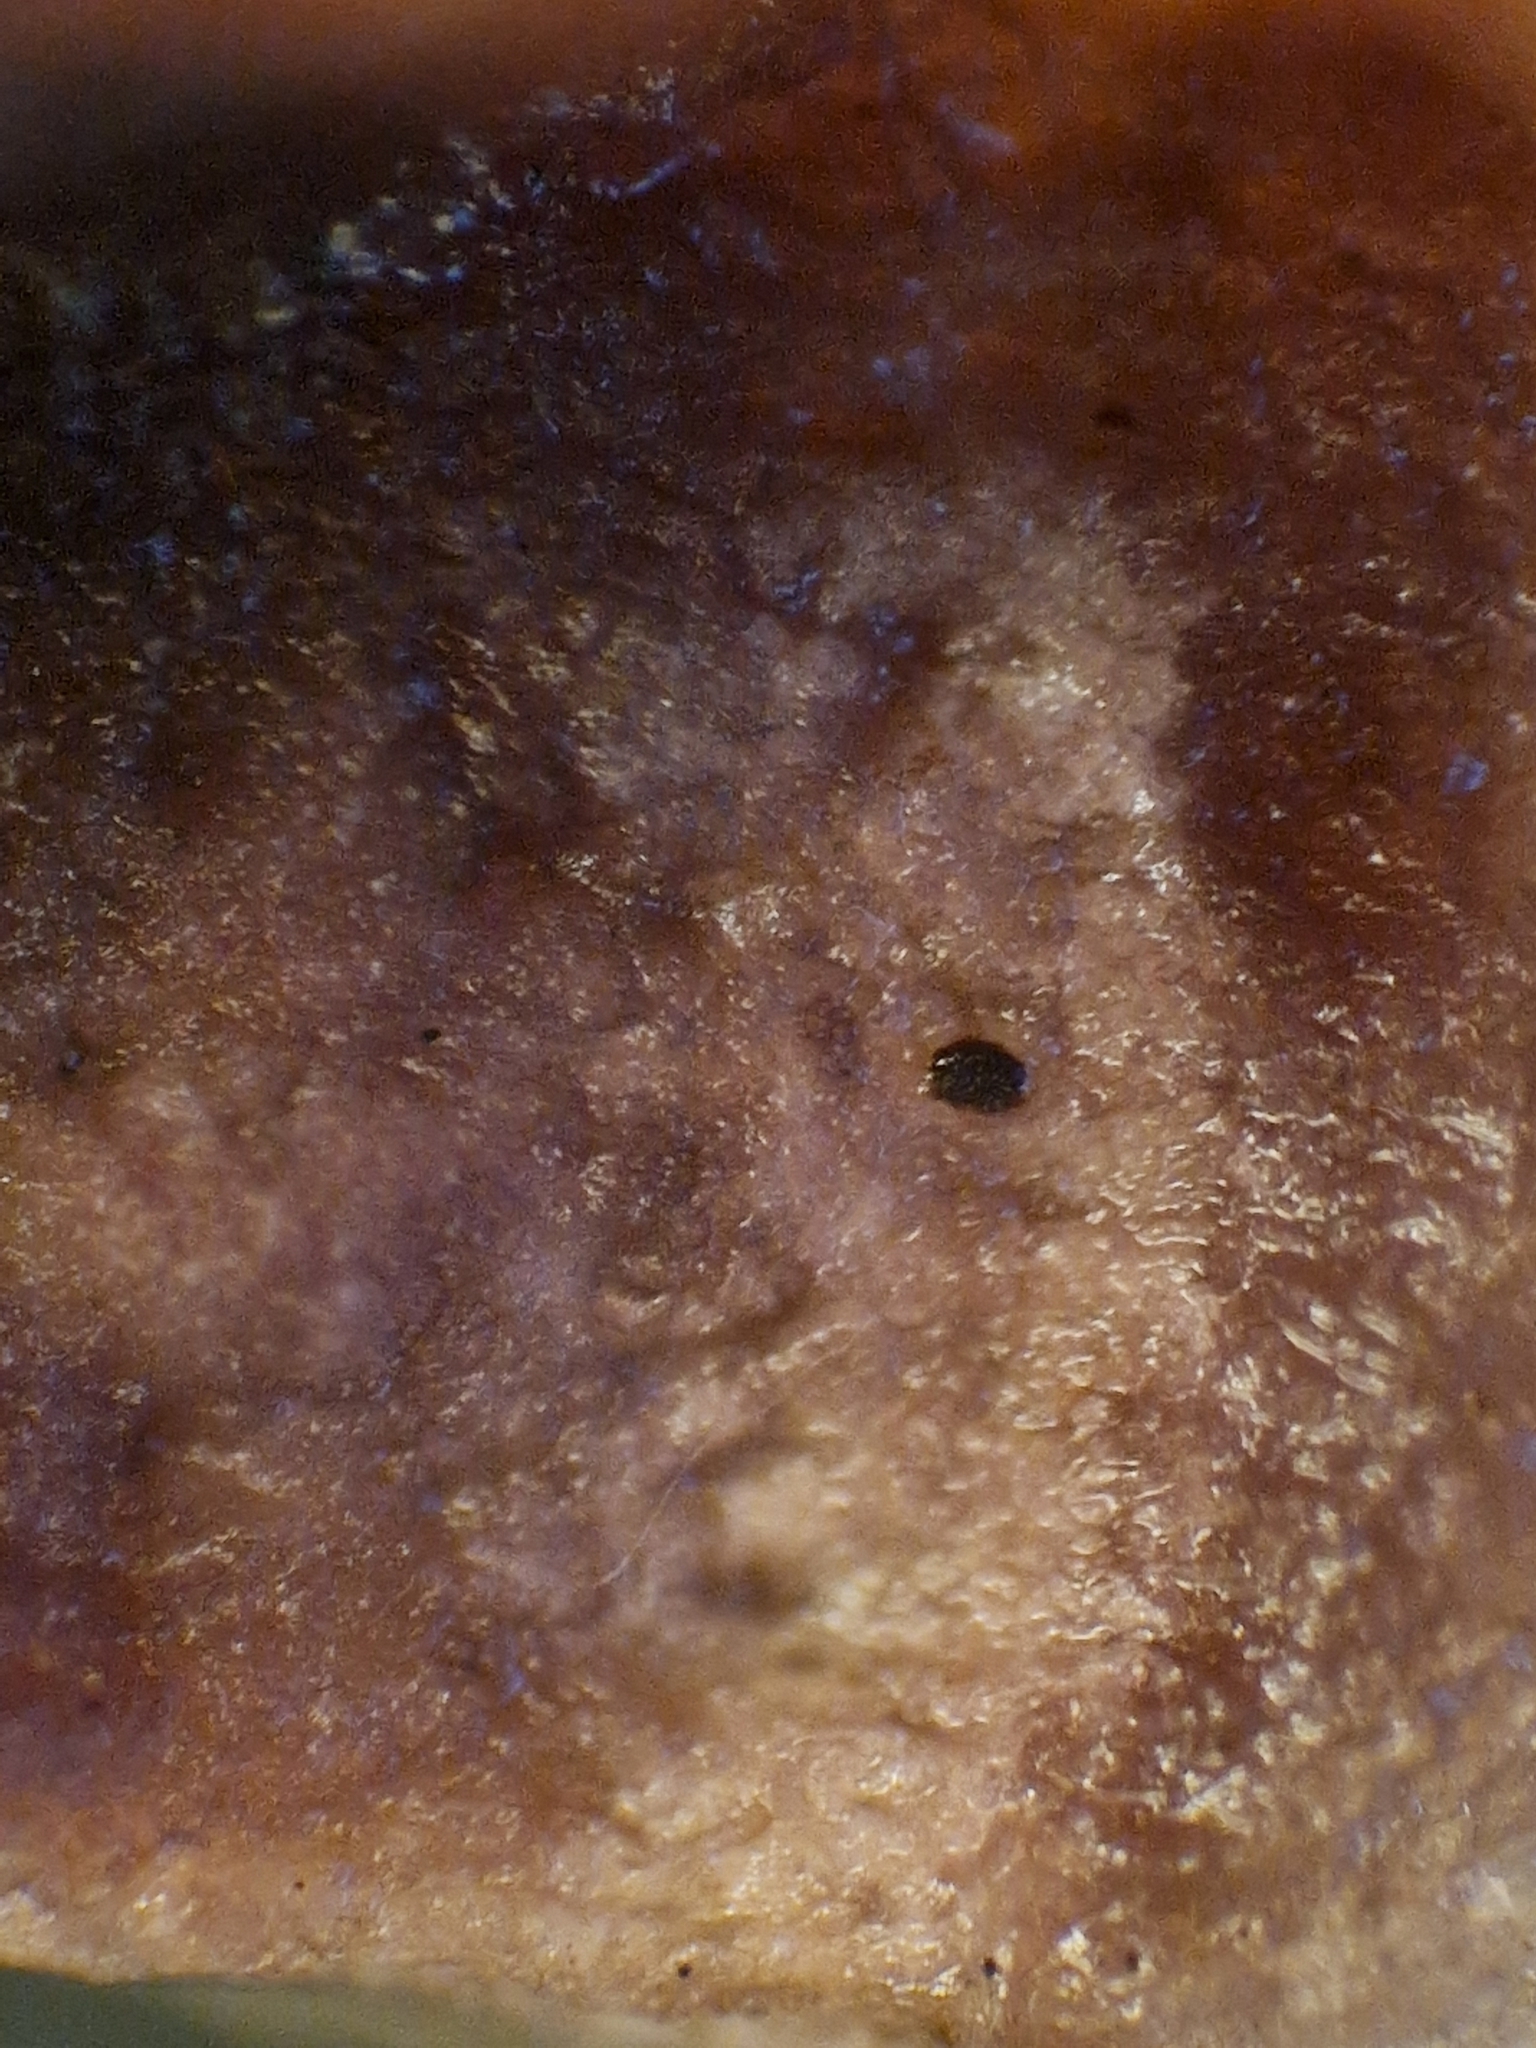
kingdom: Fungi
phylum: Basidiomycota
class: Agaricomycetes
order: Agaricales
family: Cyphellaceae
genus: Chondrostereum
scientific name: Chondrostereum purpureum
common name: Silver leaf disease
